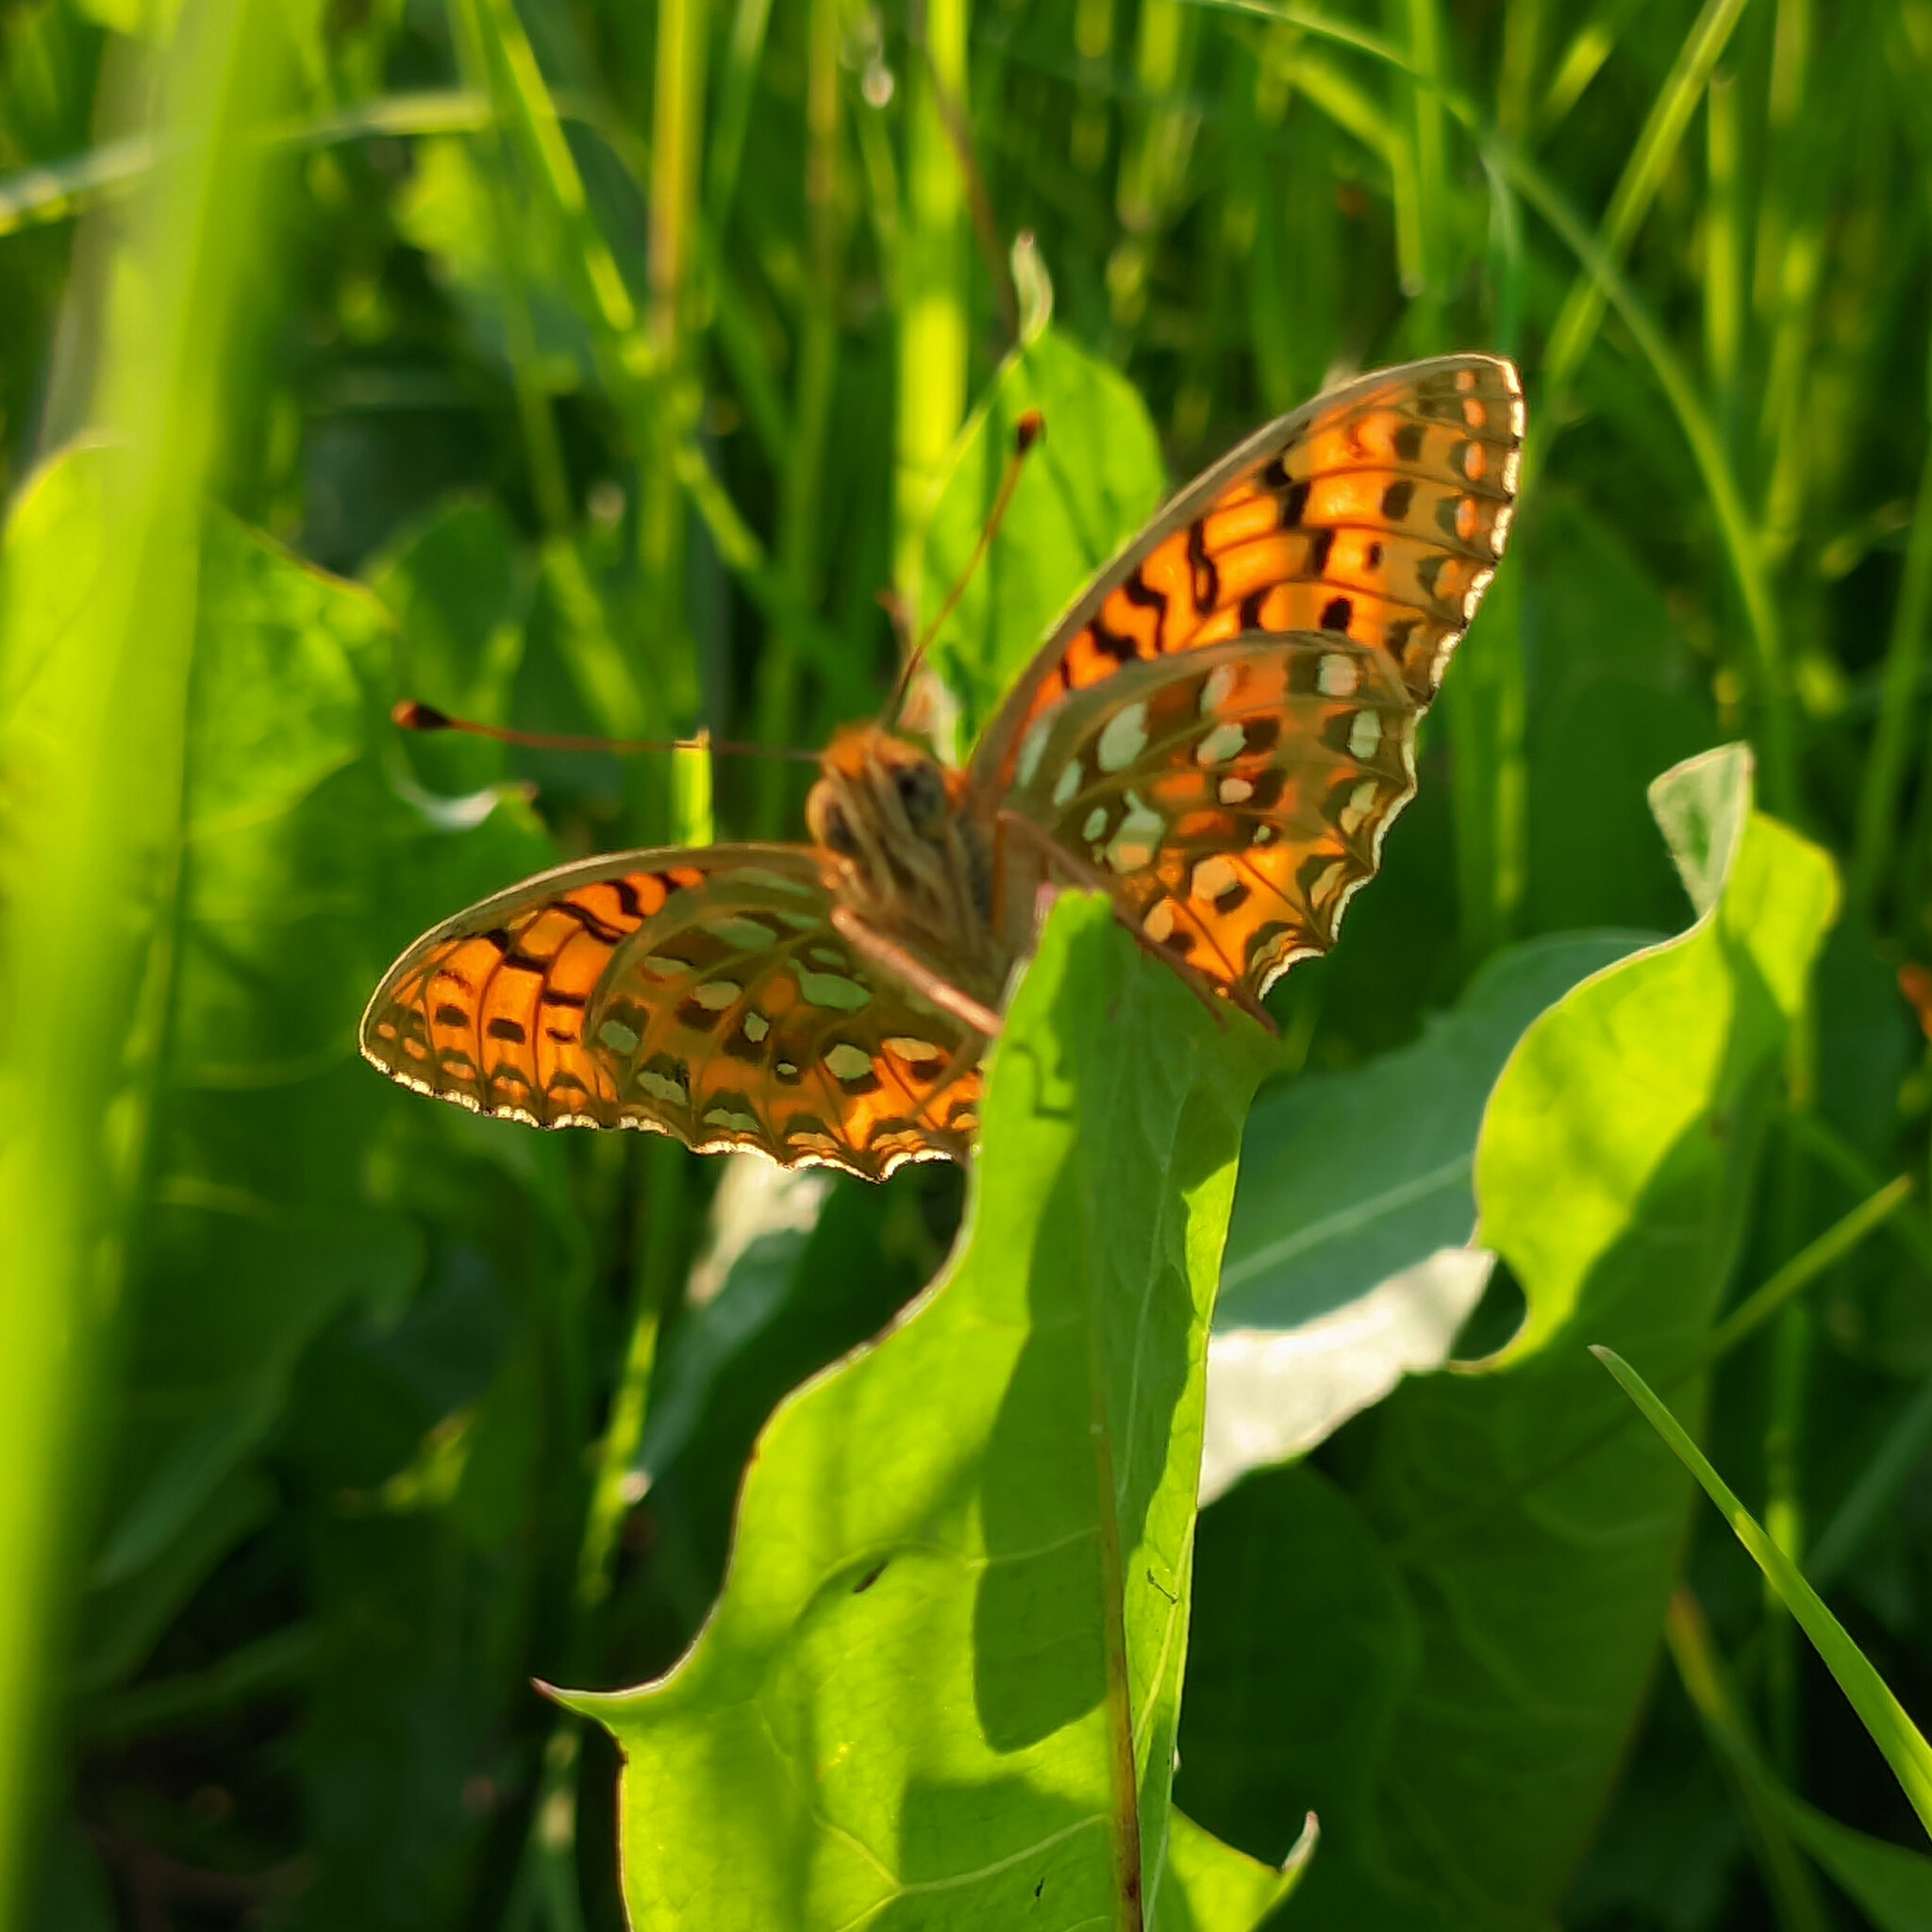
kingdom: Animalia
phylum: Arthropoda
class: Insecta
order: Lepidoptera
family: Nymphalidae
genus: Speyeria
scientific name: Speyeria aglaja
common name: Dark green fritillary
